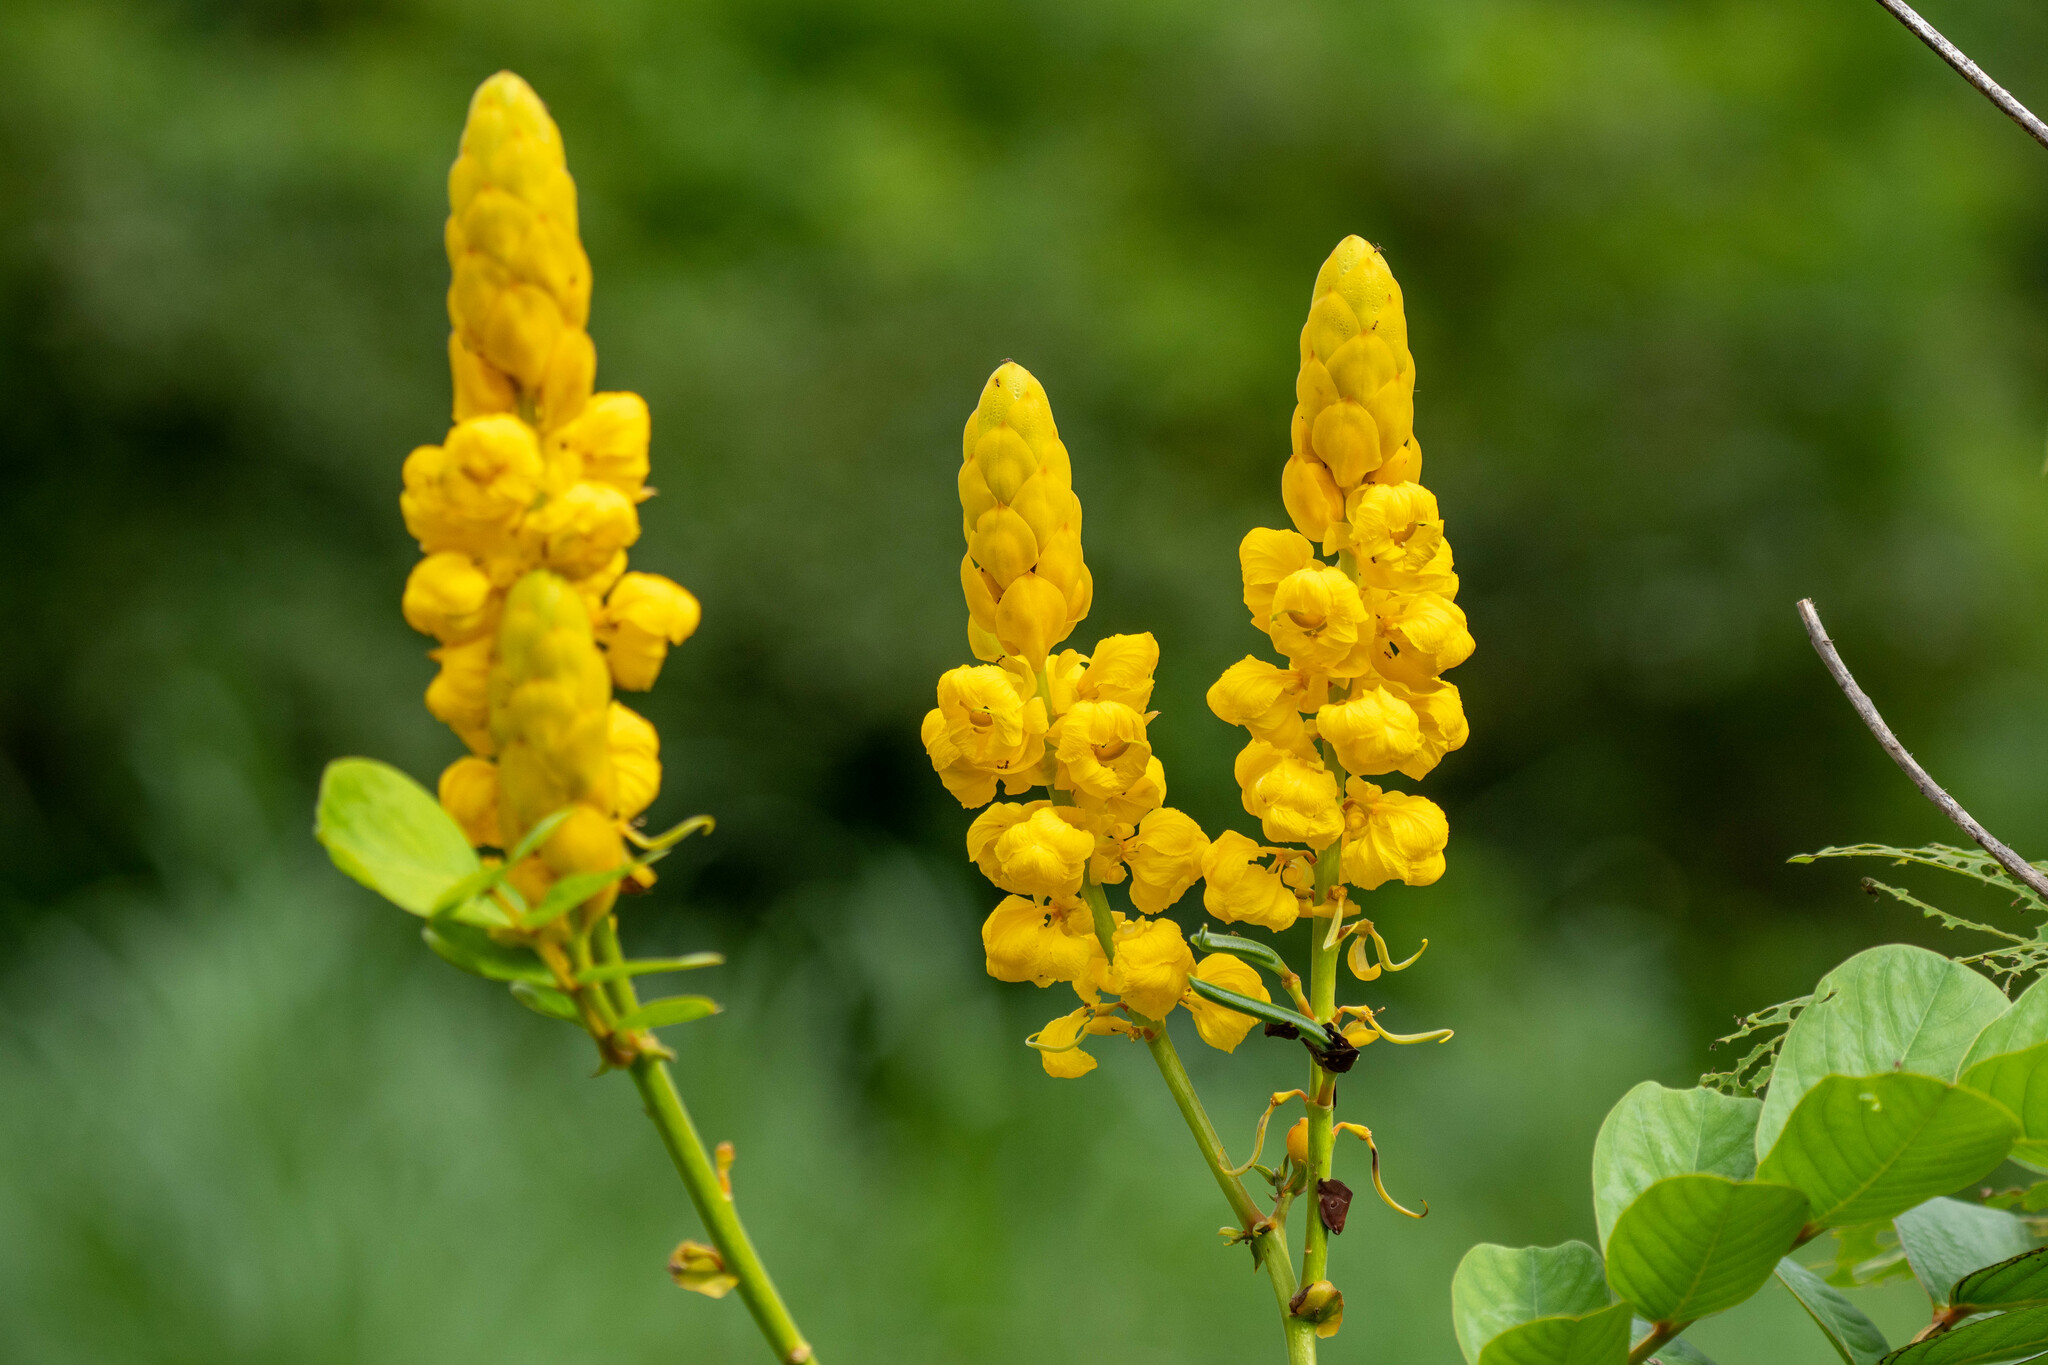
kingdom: Plantae
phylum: Tracheophyta
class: Magnoliopsida
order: Fabales
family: Fabaceae
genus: Senna
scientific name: Senna alata
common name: Emperor's candlesticks
